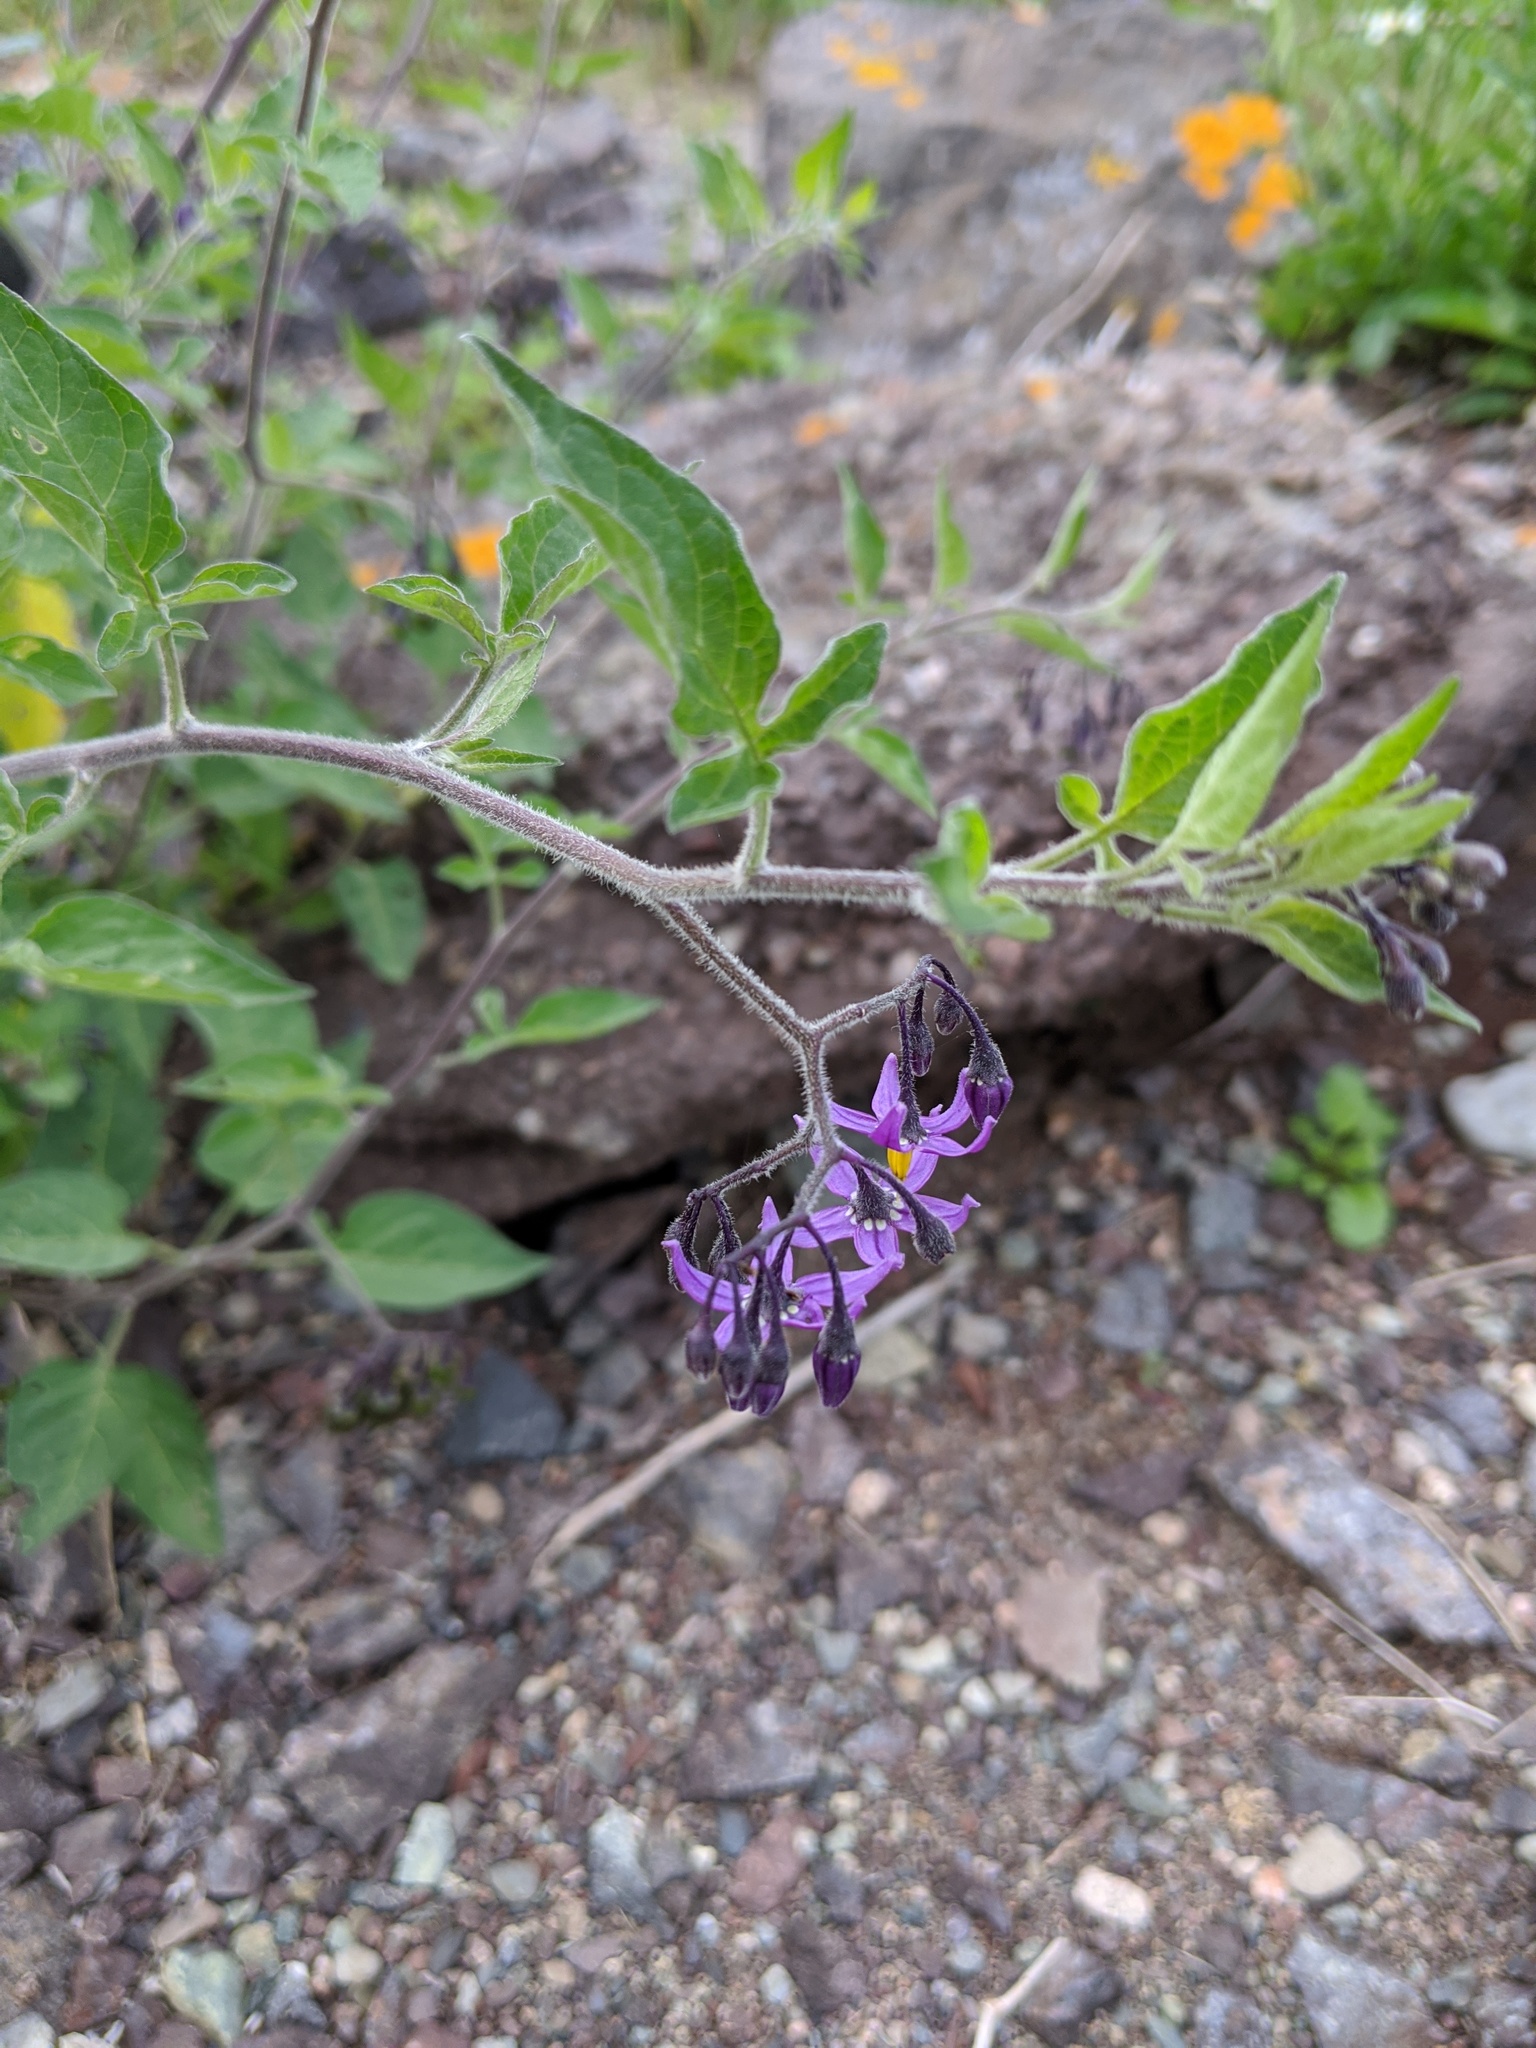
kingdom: Plantae
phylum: Tracheophyta
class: Magnoliopsida
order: Solanales
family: Solanaceae
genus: Solanum
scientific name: Solanum dulcamara
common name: Climbing nightshade
